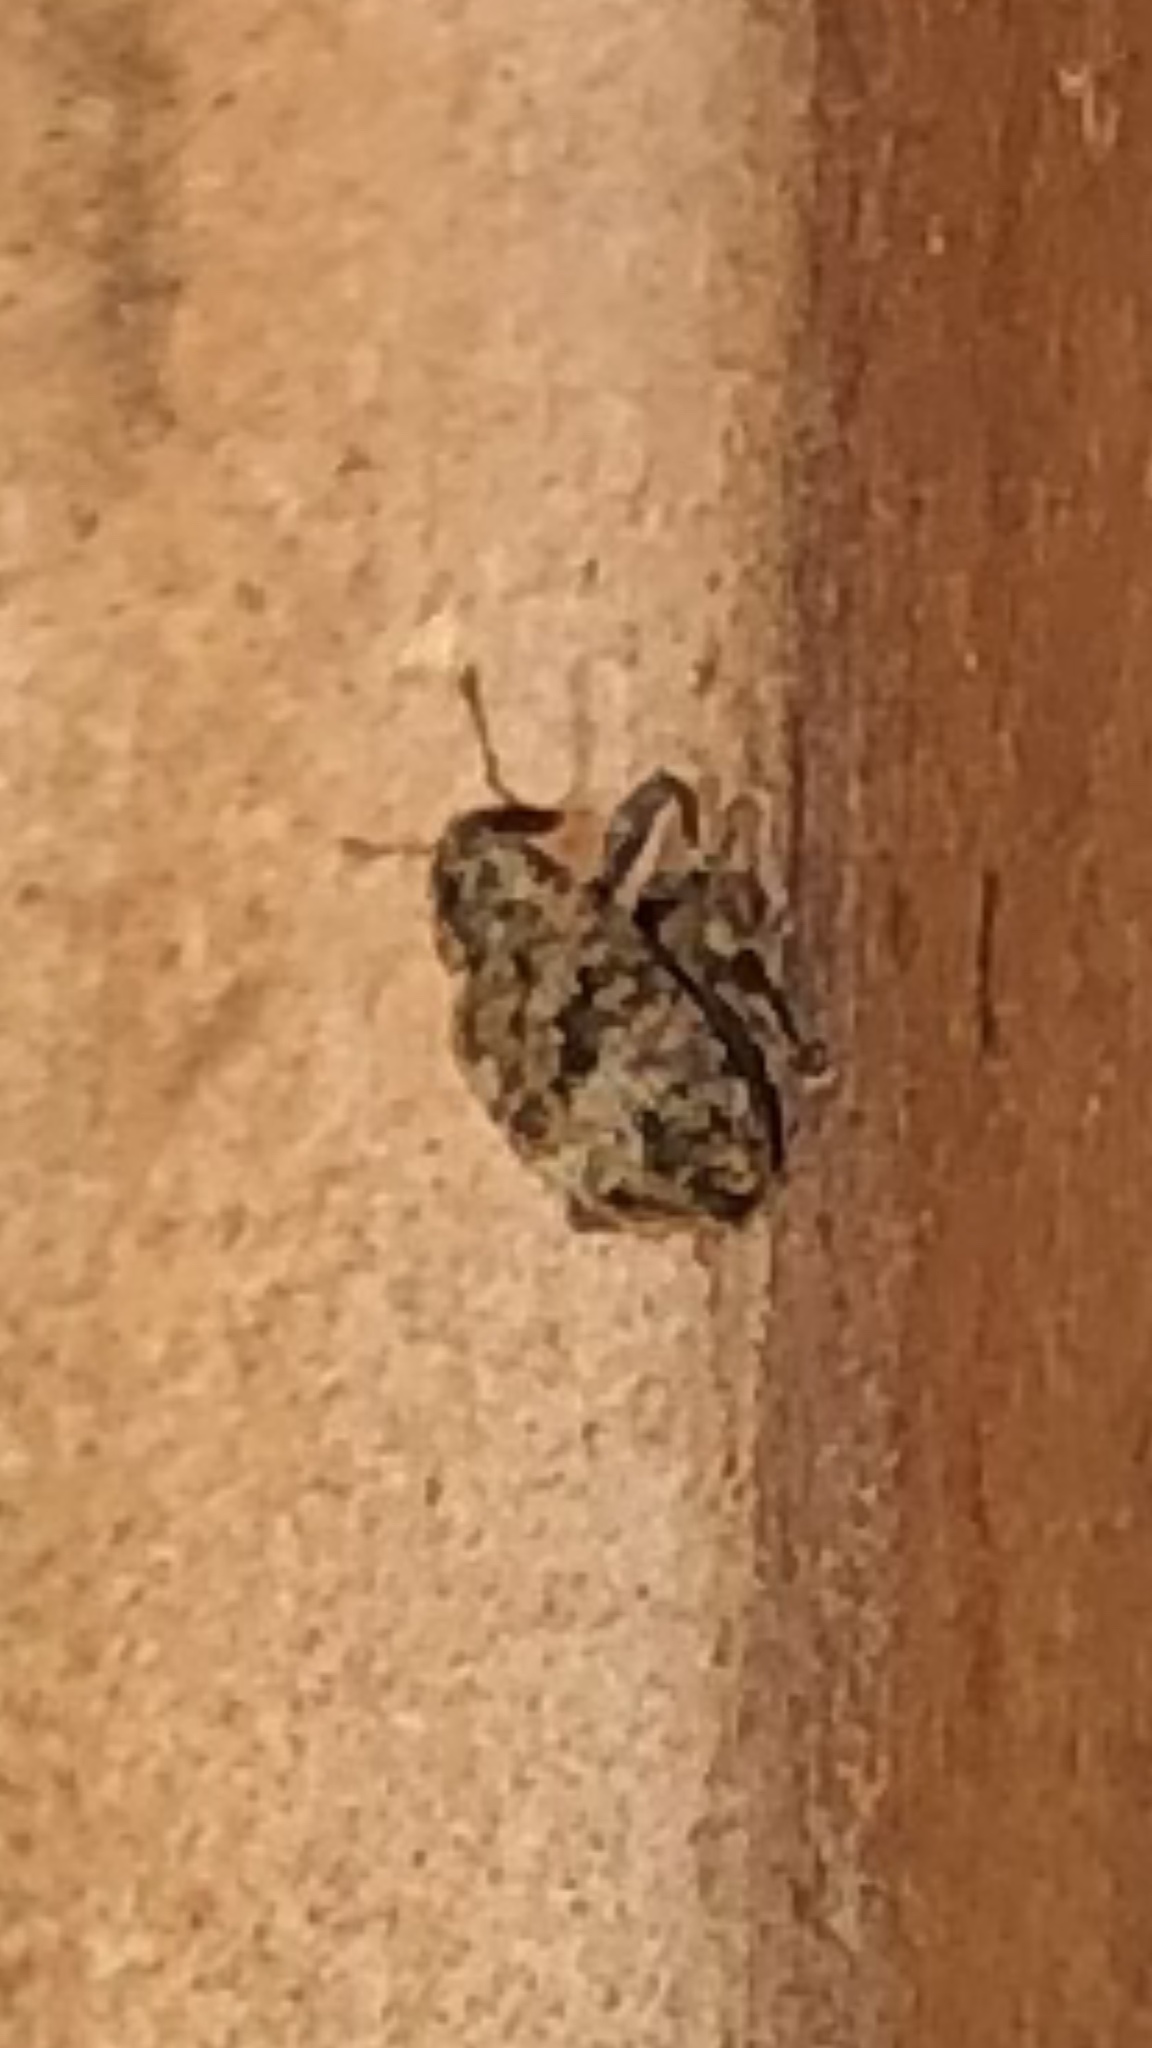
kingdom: Animalia
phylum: Arthropoda
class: Insecta
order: Coleoptera
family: Curculionidae
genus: Conotrachelus
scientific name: Conotrachelus recessus
